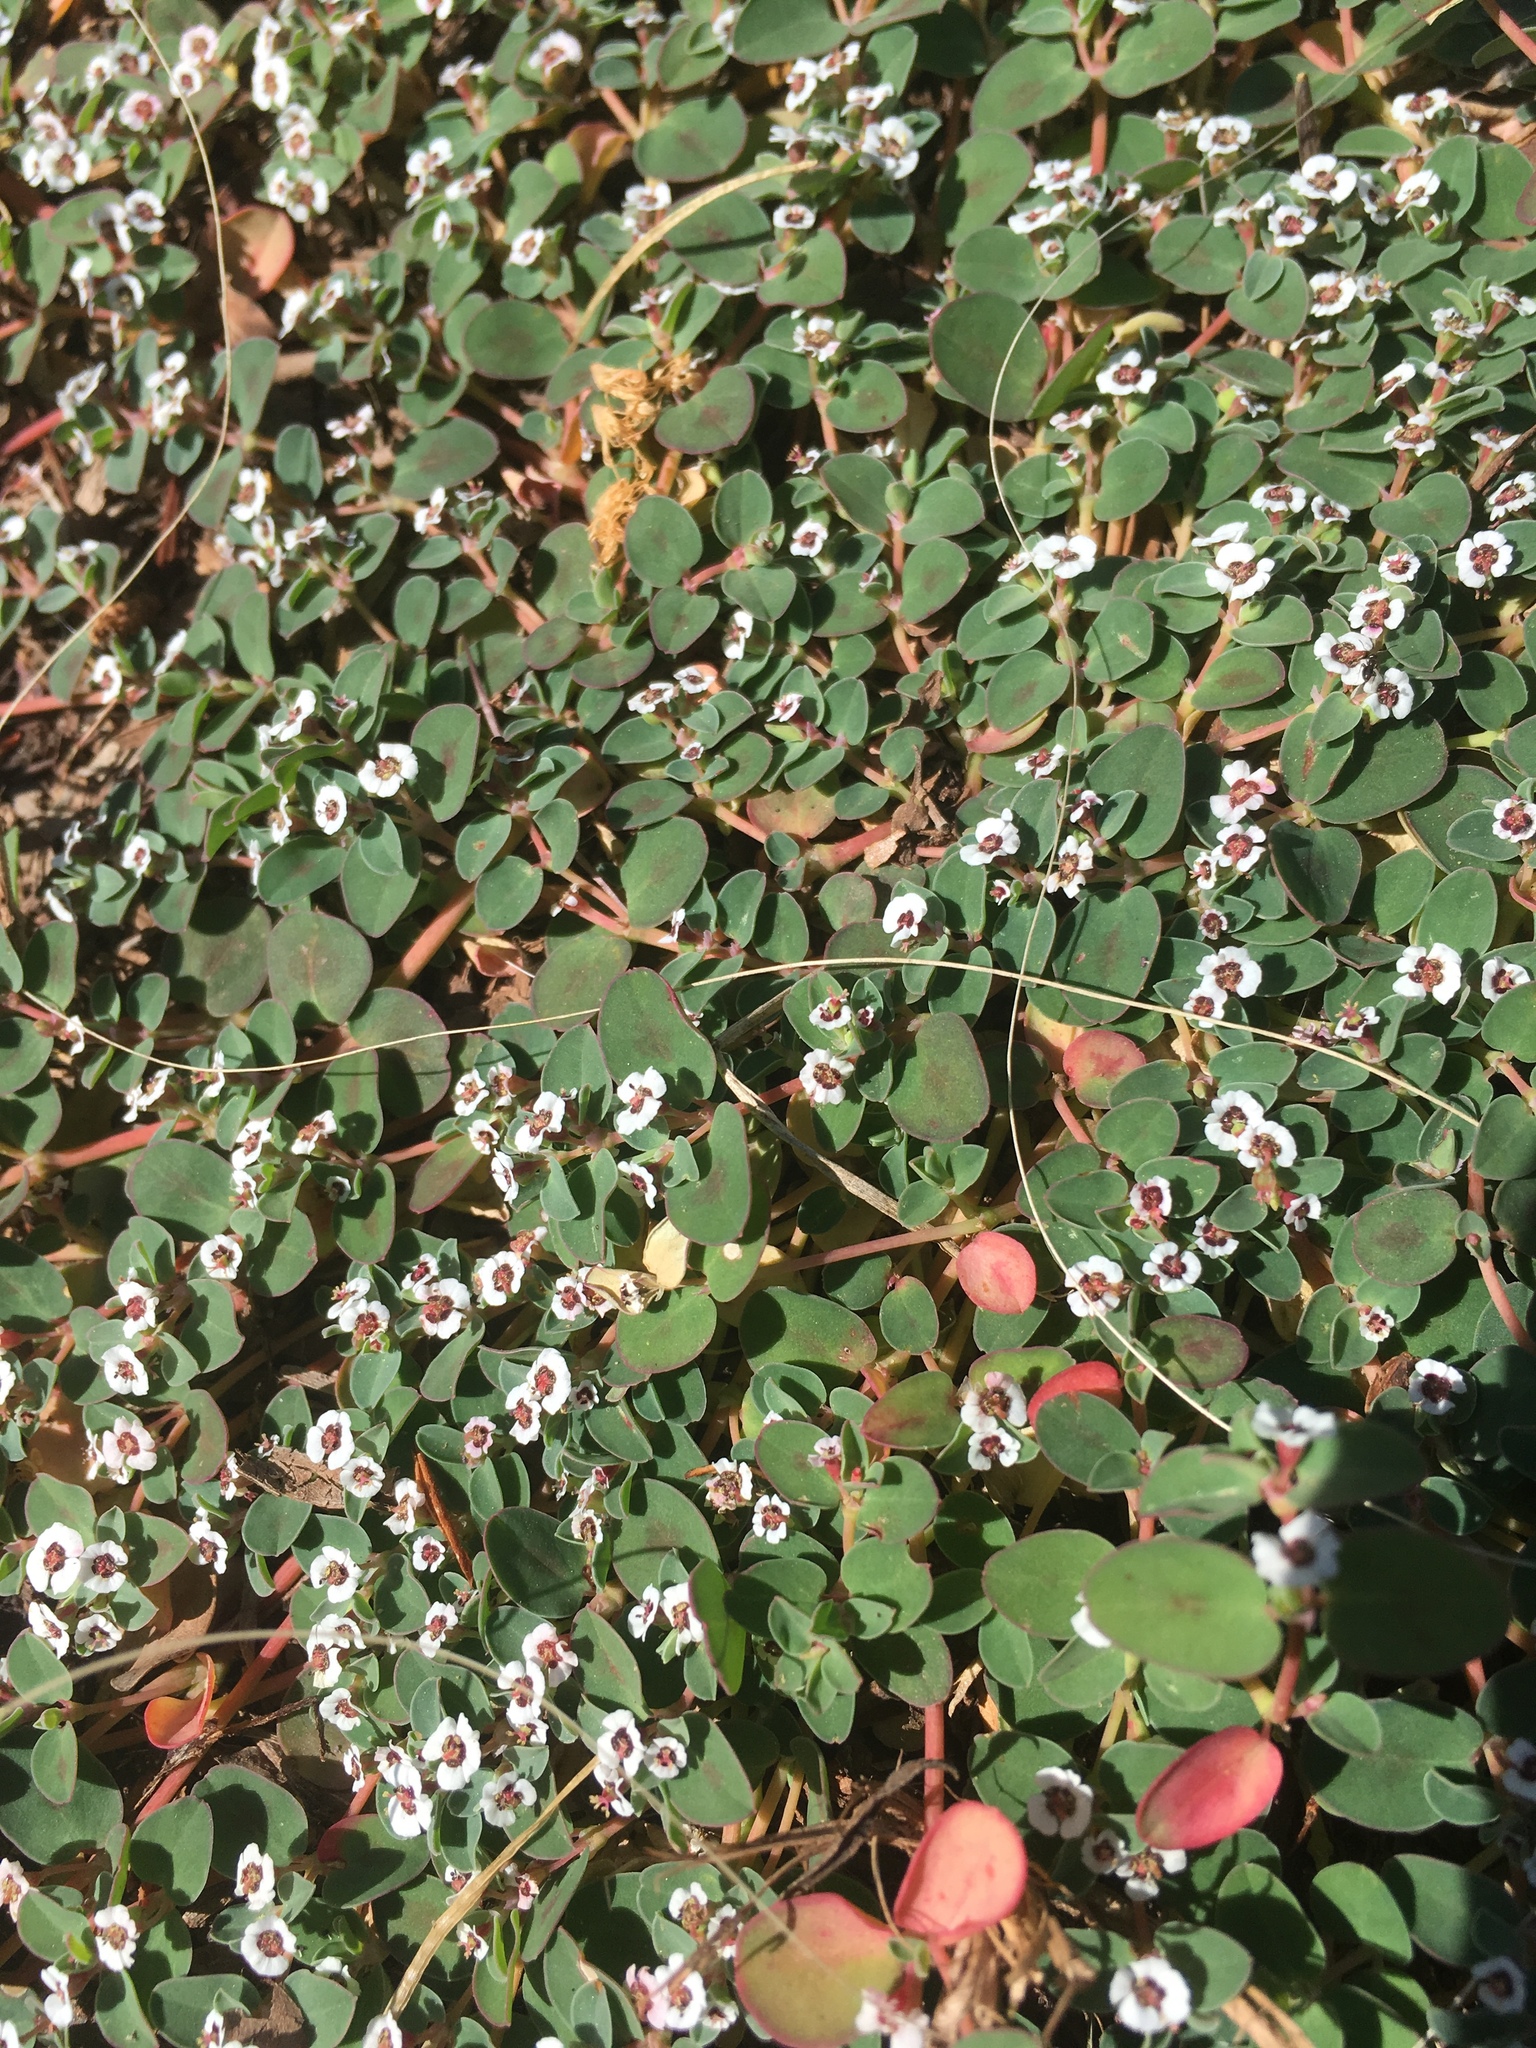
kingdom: Plantae
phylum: Tracheophyta
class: Magnoliopsida
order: Malpighiales
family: Euphorbiaceae
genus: Euphorbia
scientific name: Euphorbia albomarginata
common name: Whitemargin sandmat
